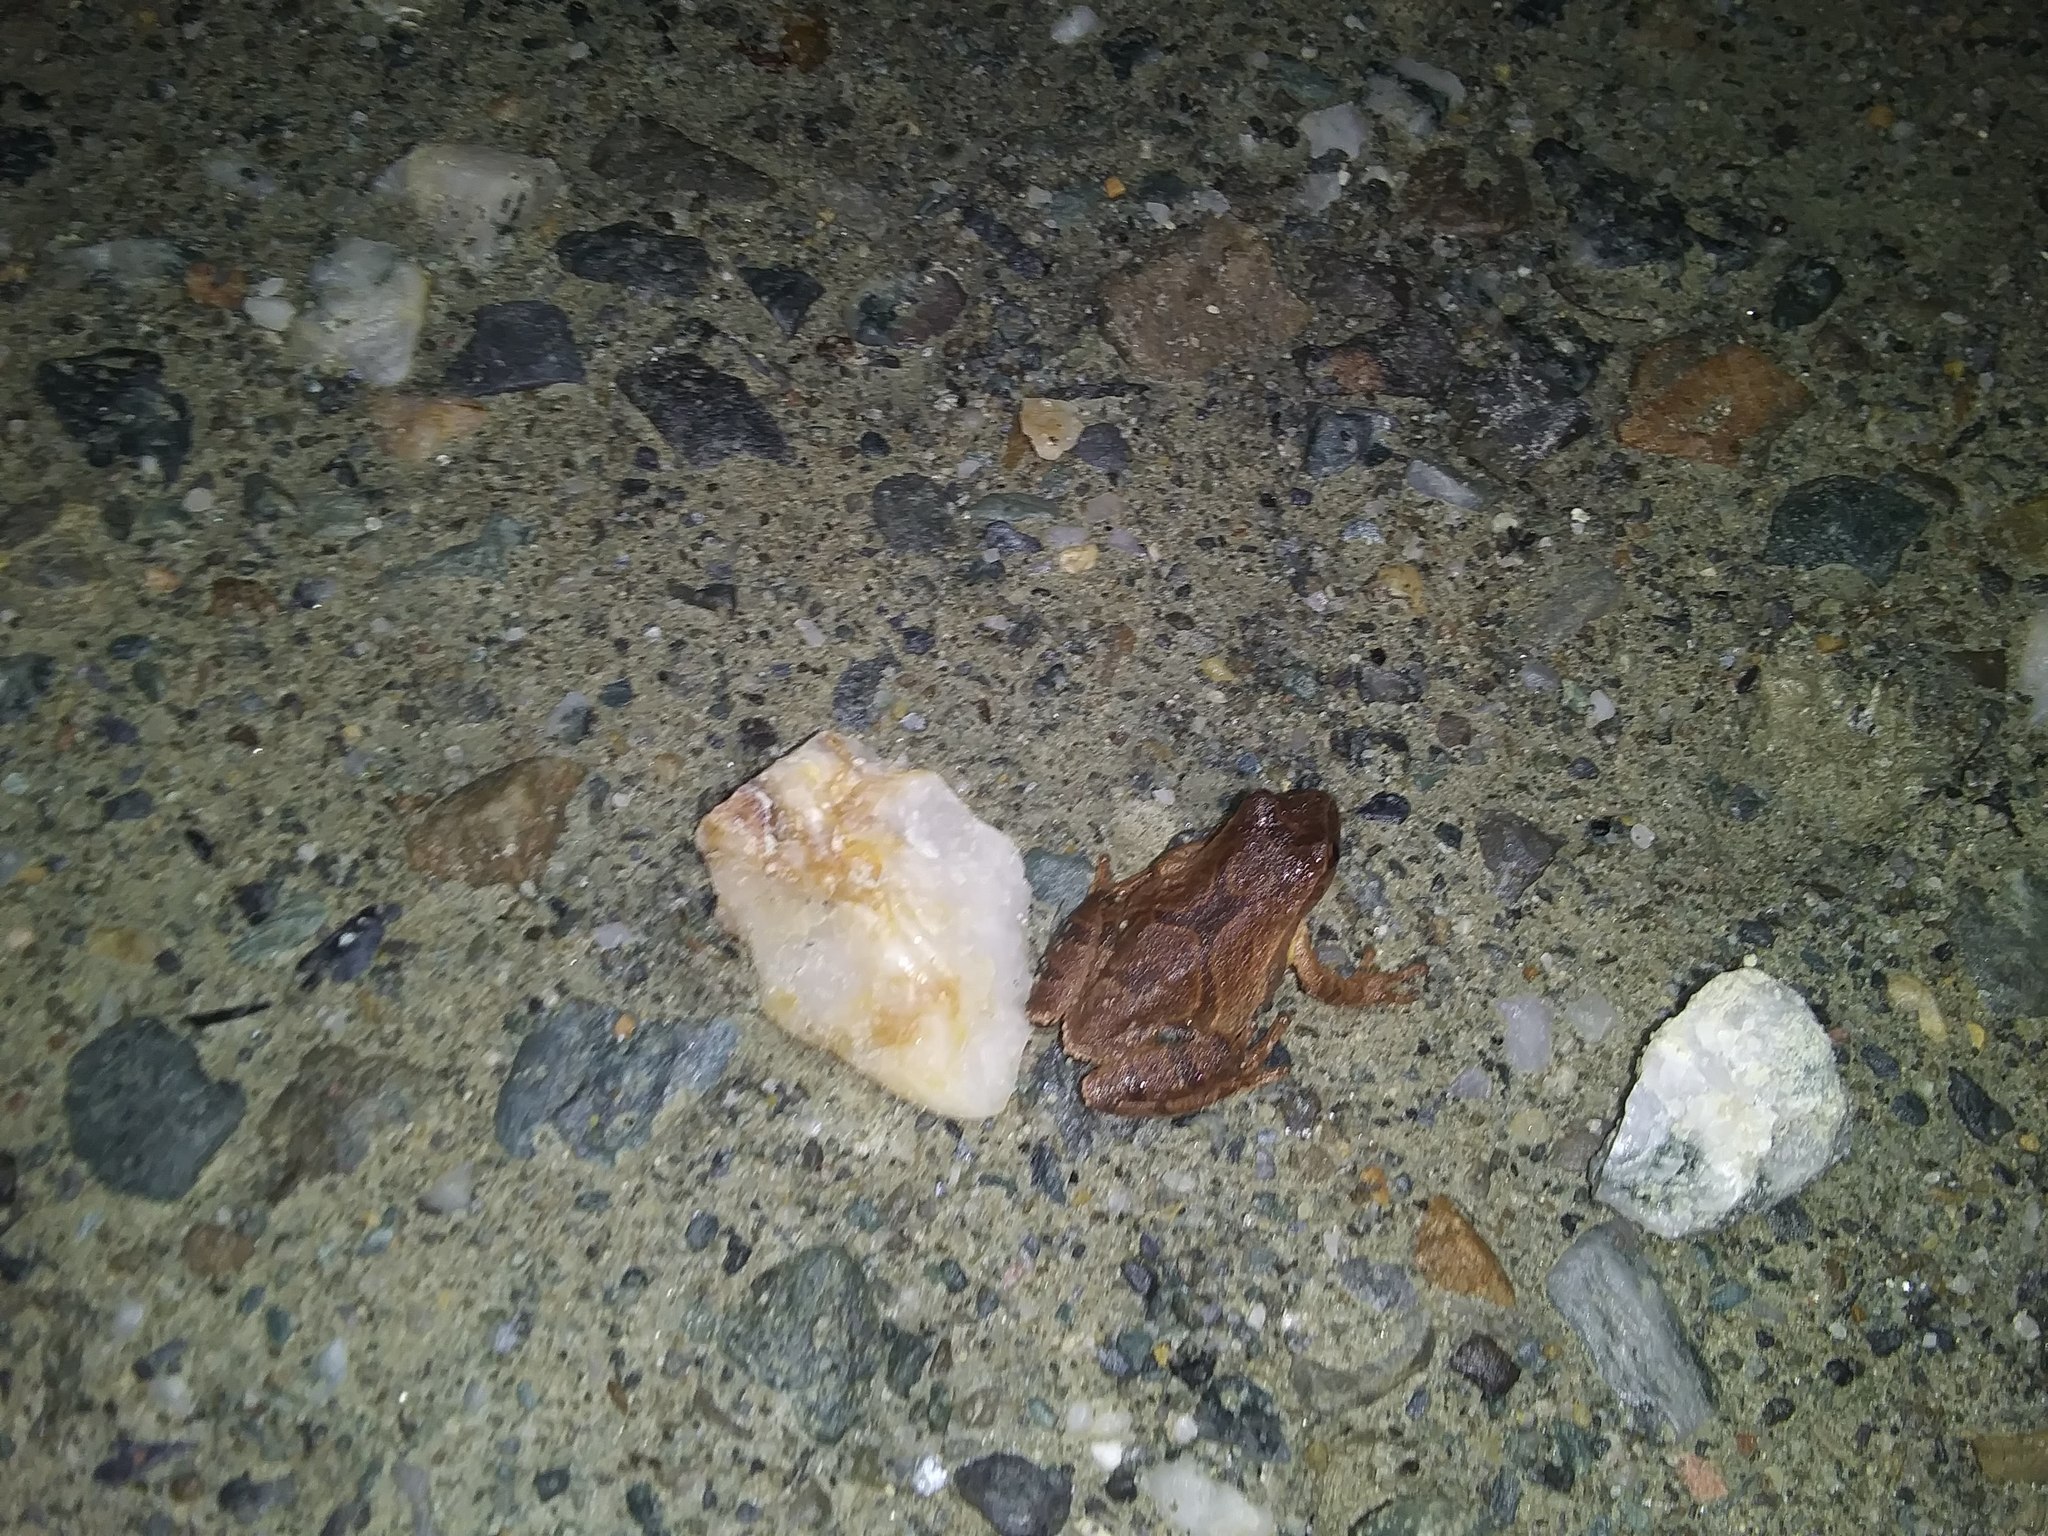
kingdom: Animalia
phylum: Chordata
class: Amphibia
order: Anura
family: Hylidae
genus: Pseudacris
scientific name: Pseudacris crucifer
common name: Spring peeper
